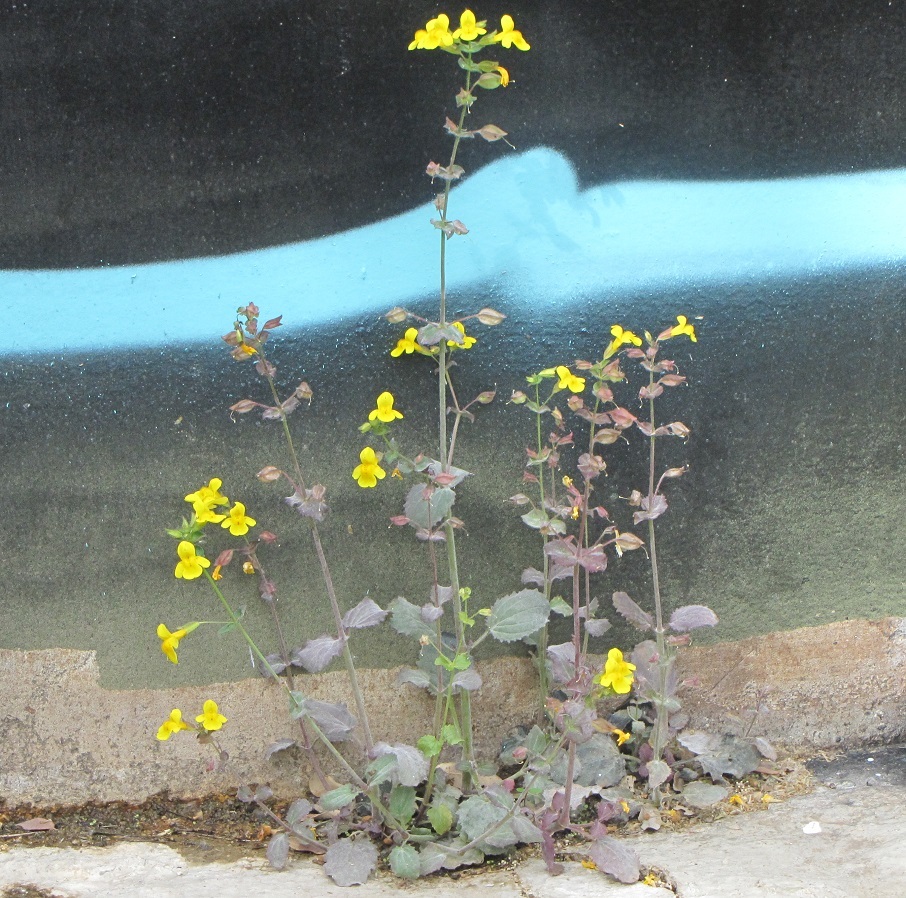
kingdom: Plantae
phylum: Tracheophyta
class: Magnoliopsida
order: Lamiales
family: Phrymaceae
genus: Erythranthe
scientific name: Erythranthe guttata
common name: Monkeyflower
